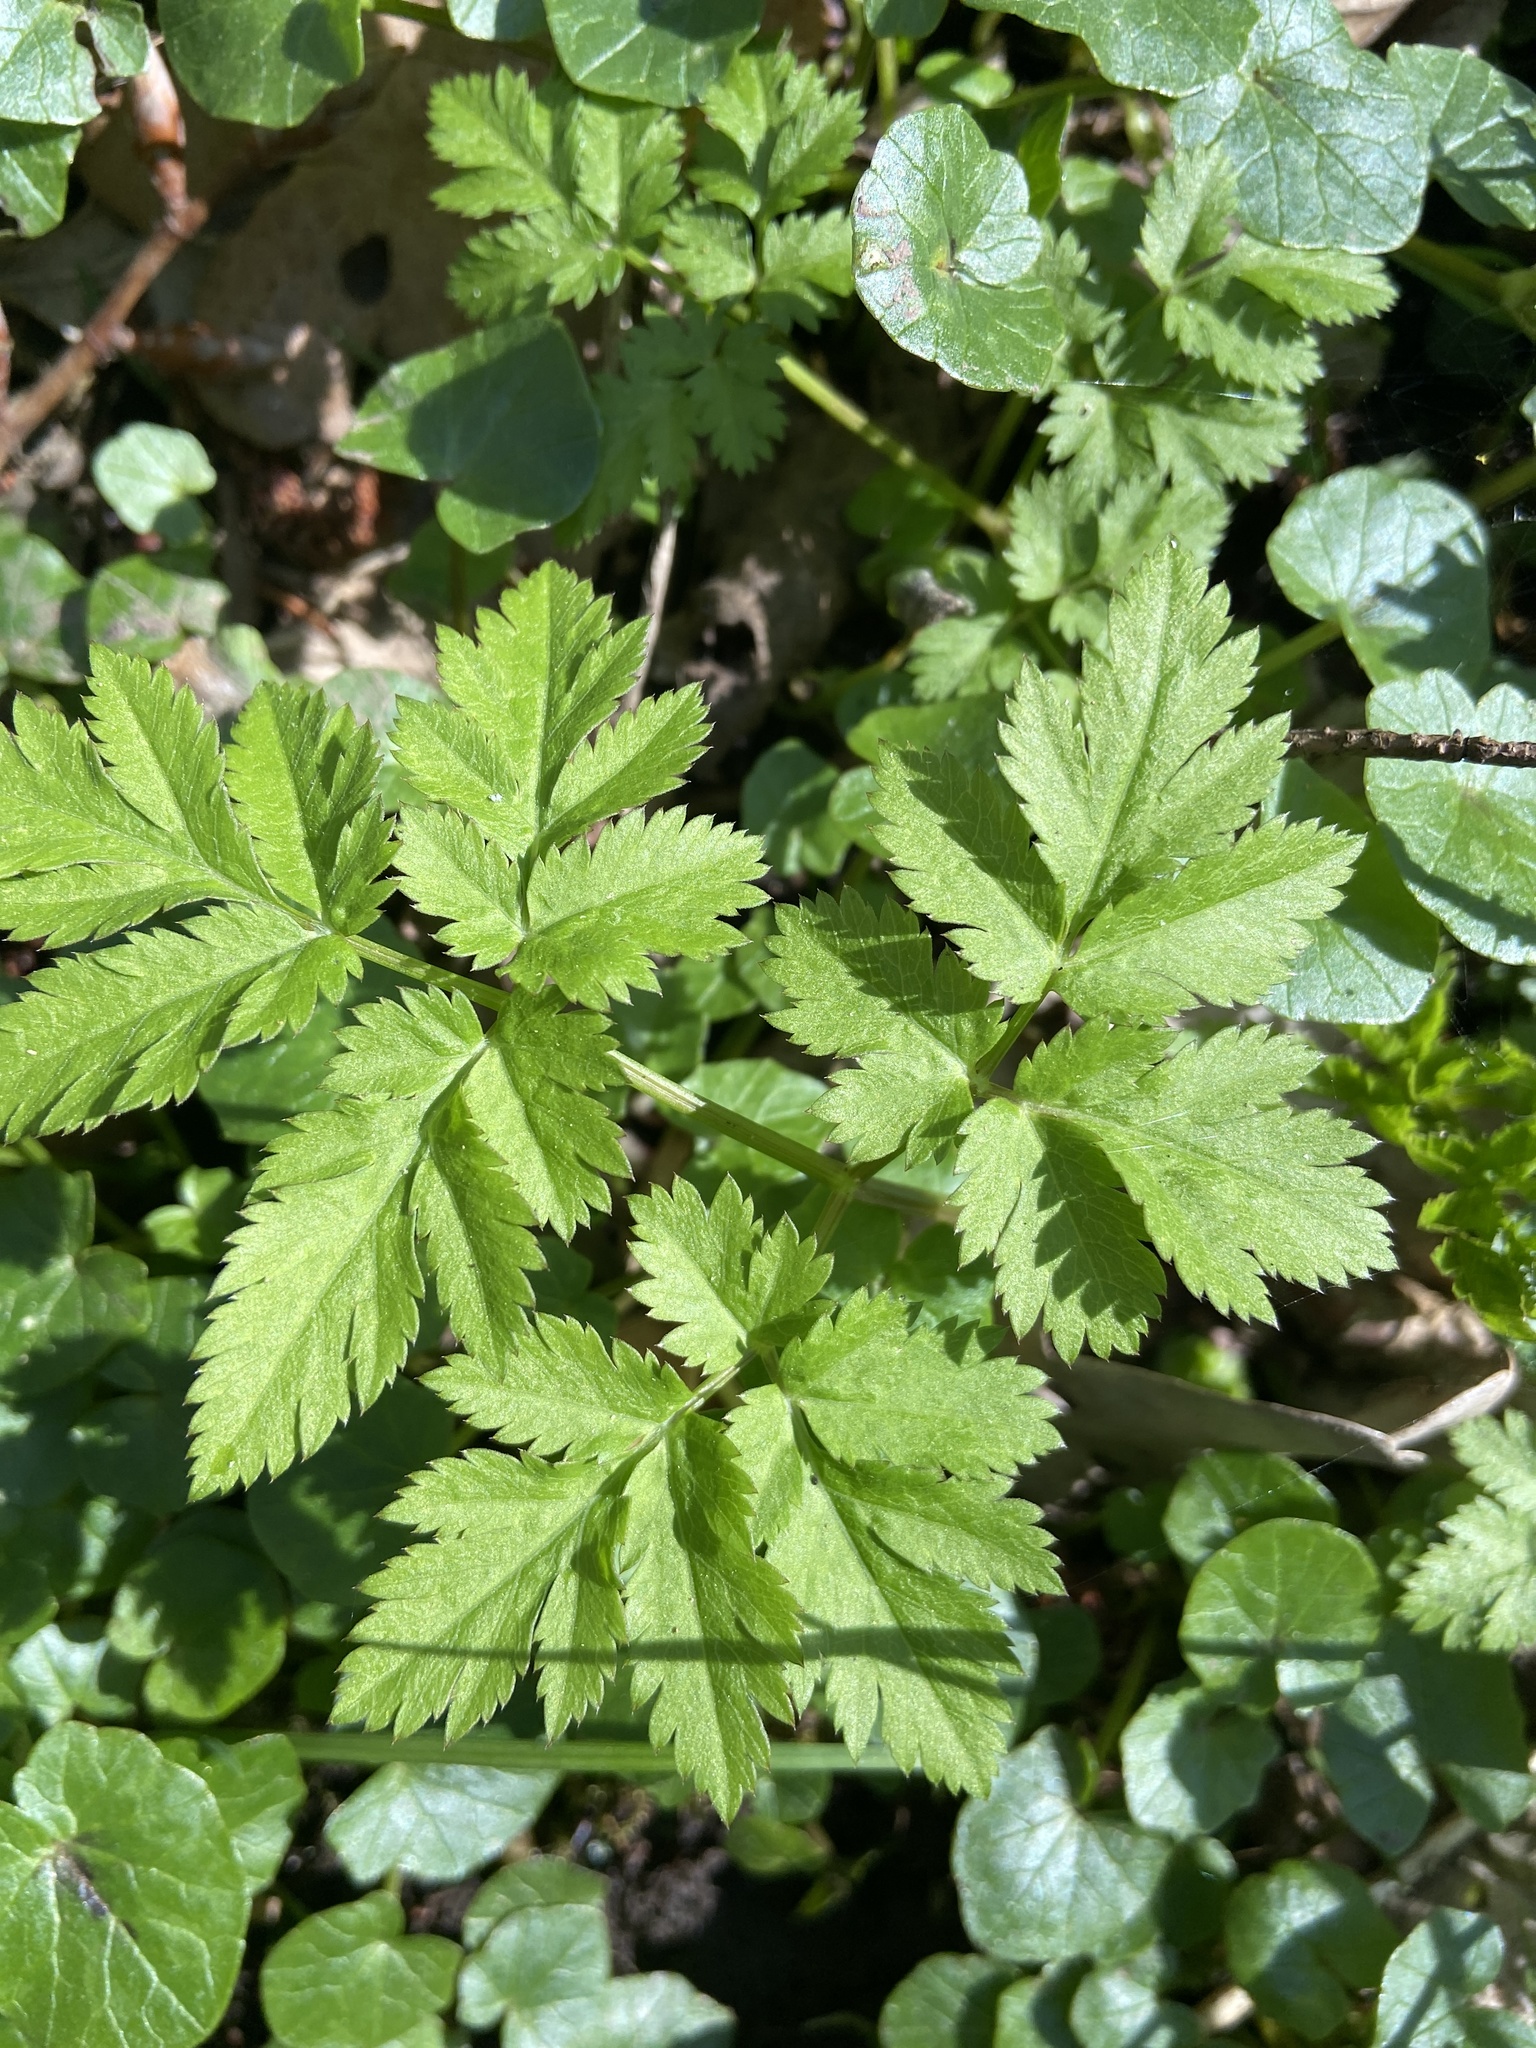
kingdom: Plantae
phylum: Tracheophyta
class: Magnoliopsida
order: Apiales
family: Apiaceae
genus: Chaerophyllum
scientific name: Chaerophyllum hirsutum
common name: Hairy chervil
